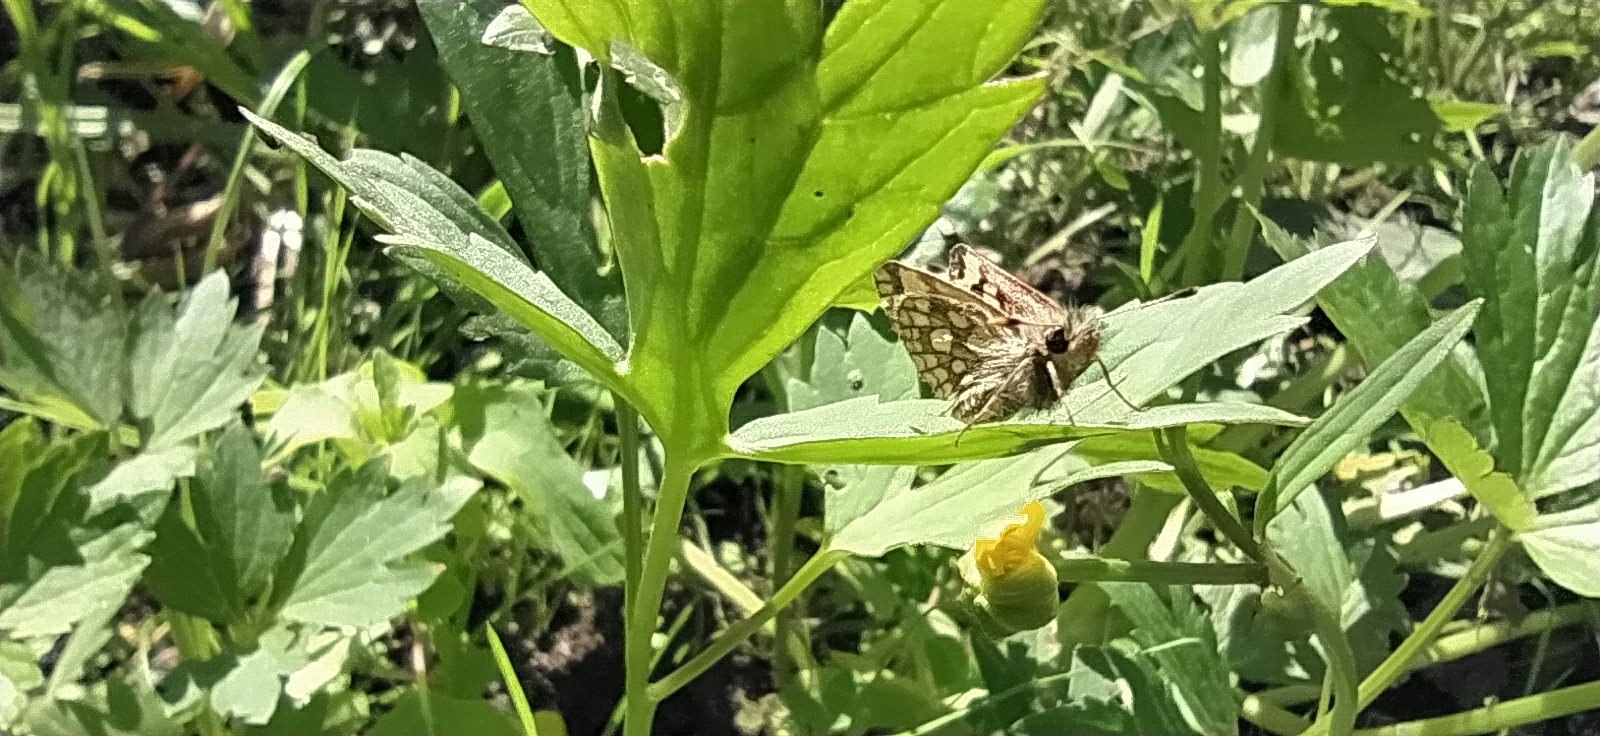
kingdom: Animalia
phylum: Arthropoda
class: Insecta
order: Lepidoptera
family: Hesperiidae
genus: Carterocephalus
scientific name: Carterocephalus silvicola
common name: Northern chequered skipper
